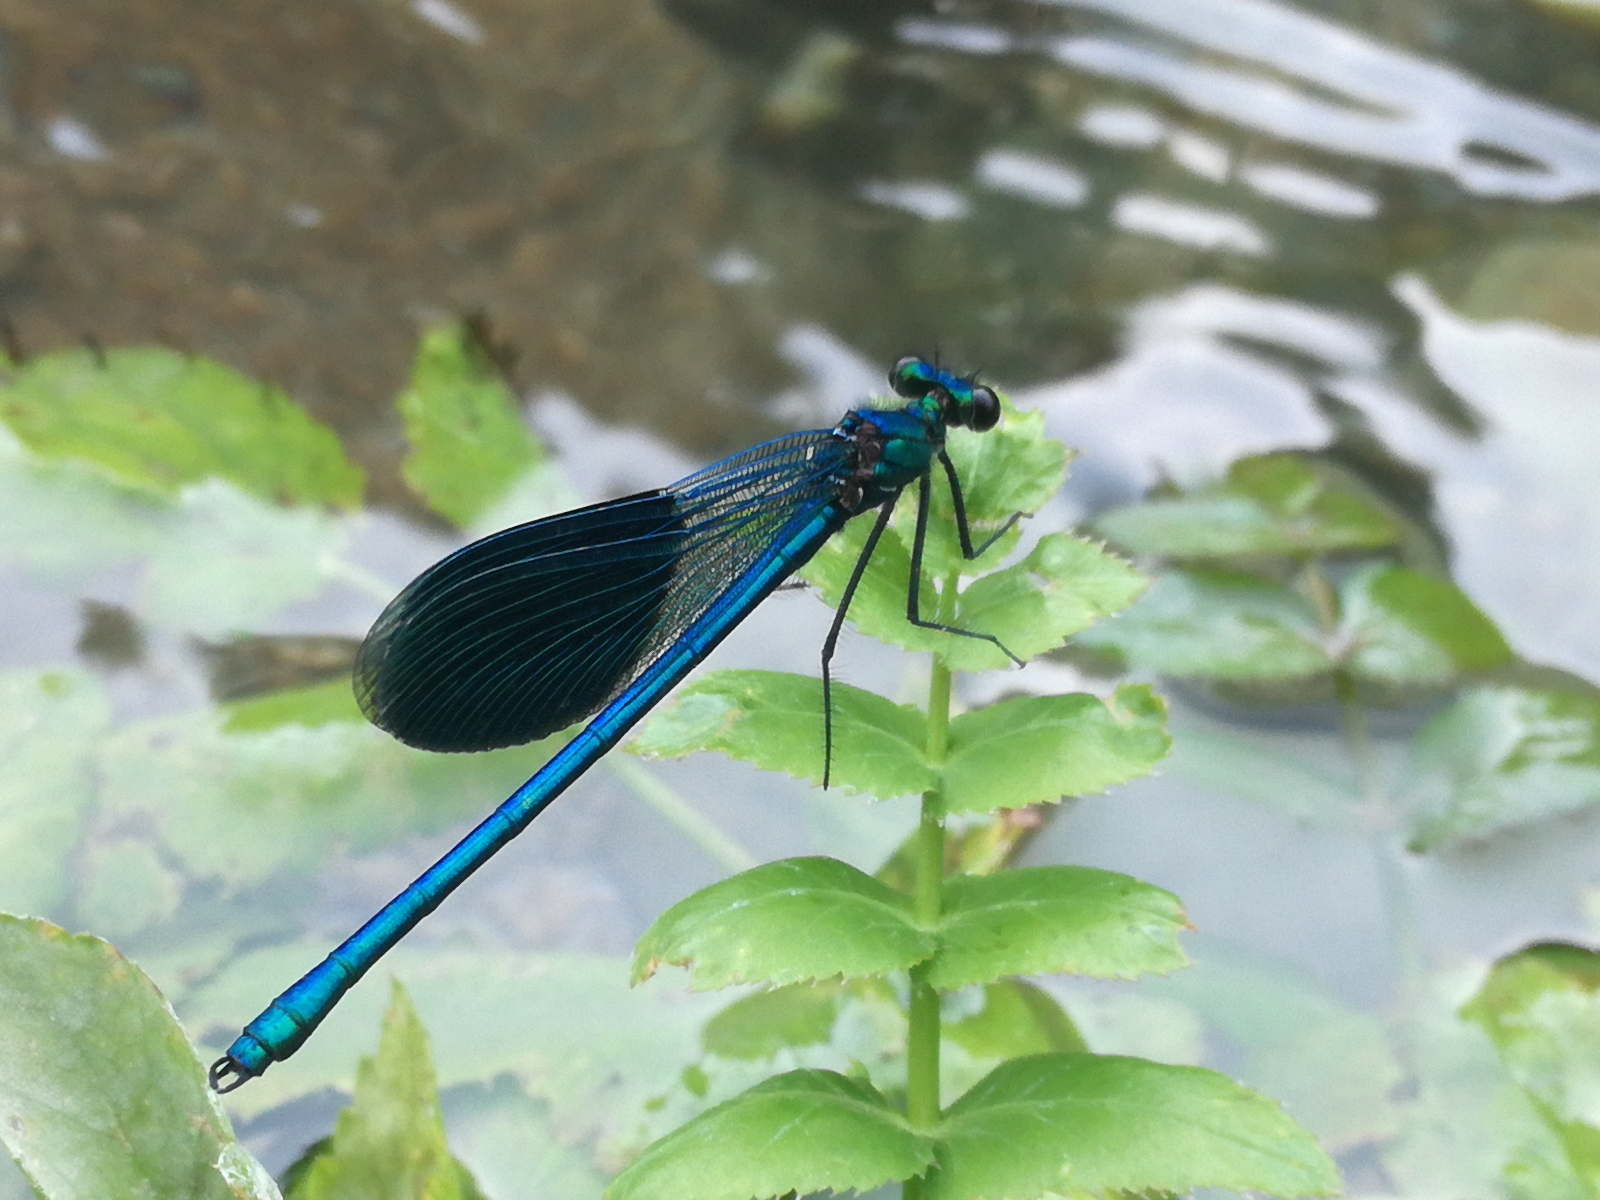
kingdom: Animalia
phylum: Arthropoda
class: Insecta
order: Odonata
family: Calopterygidae
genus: Calopteryx
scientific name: Calopteryx splendens
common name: Banded demoiselle
